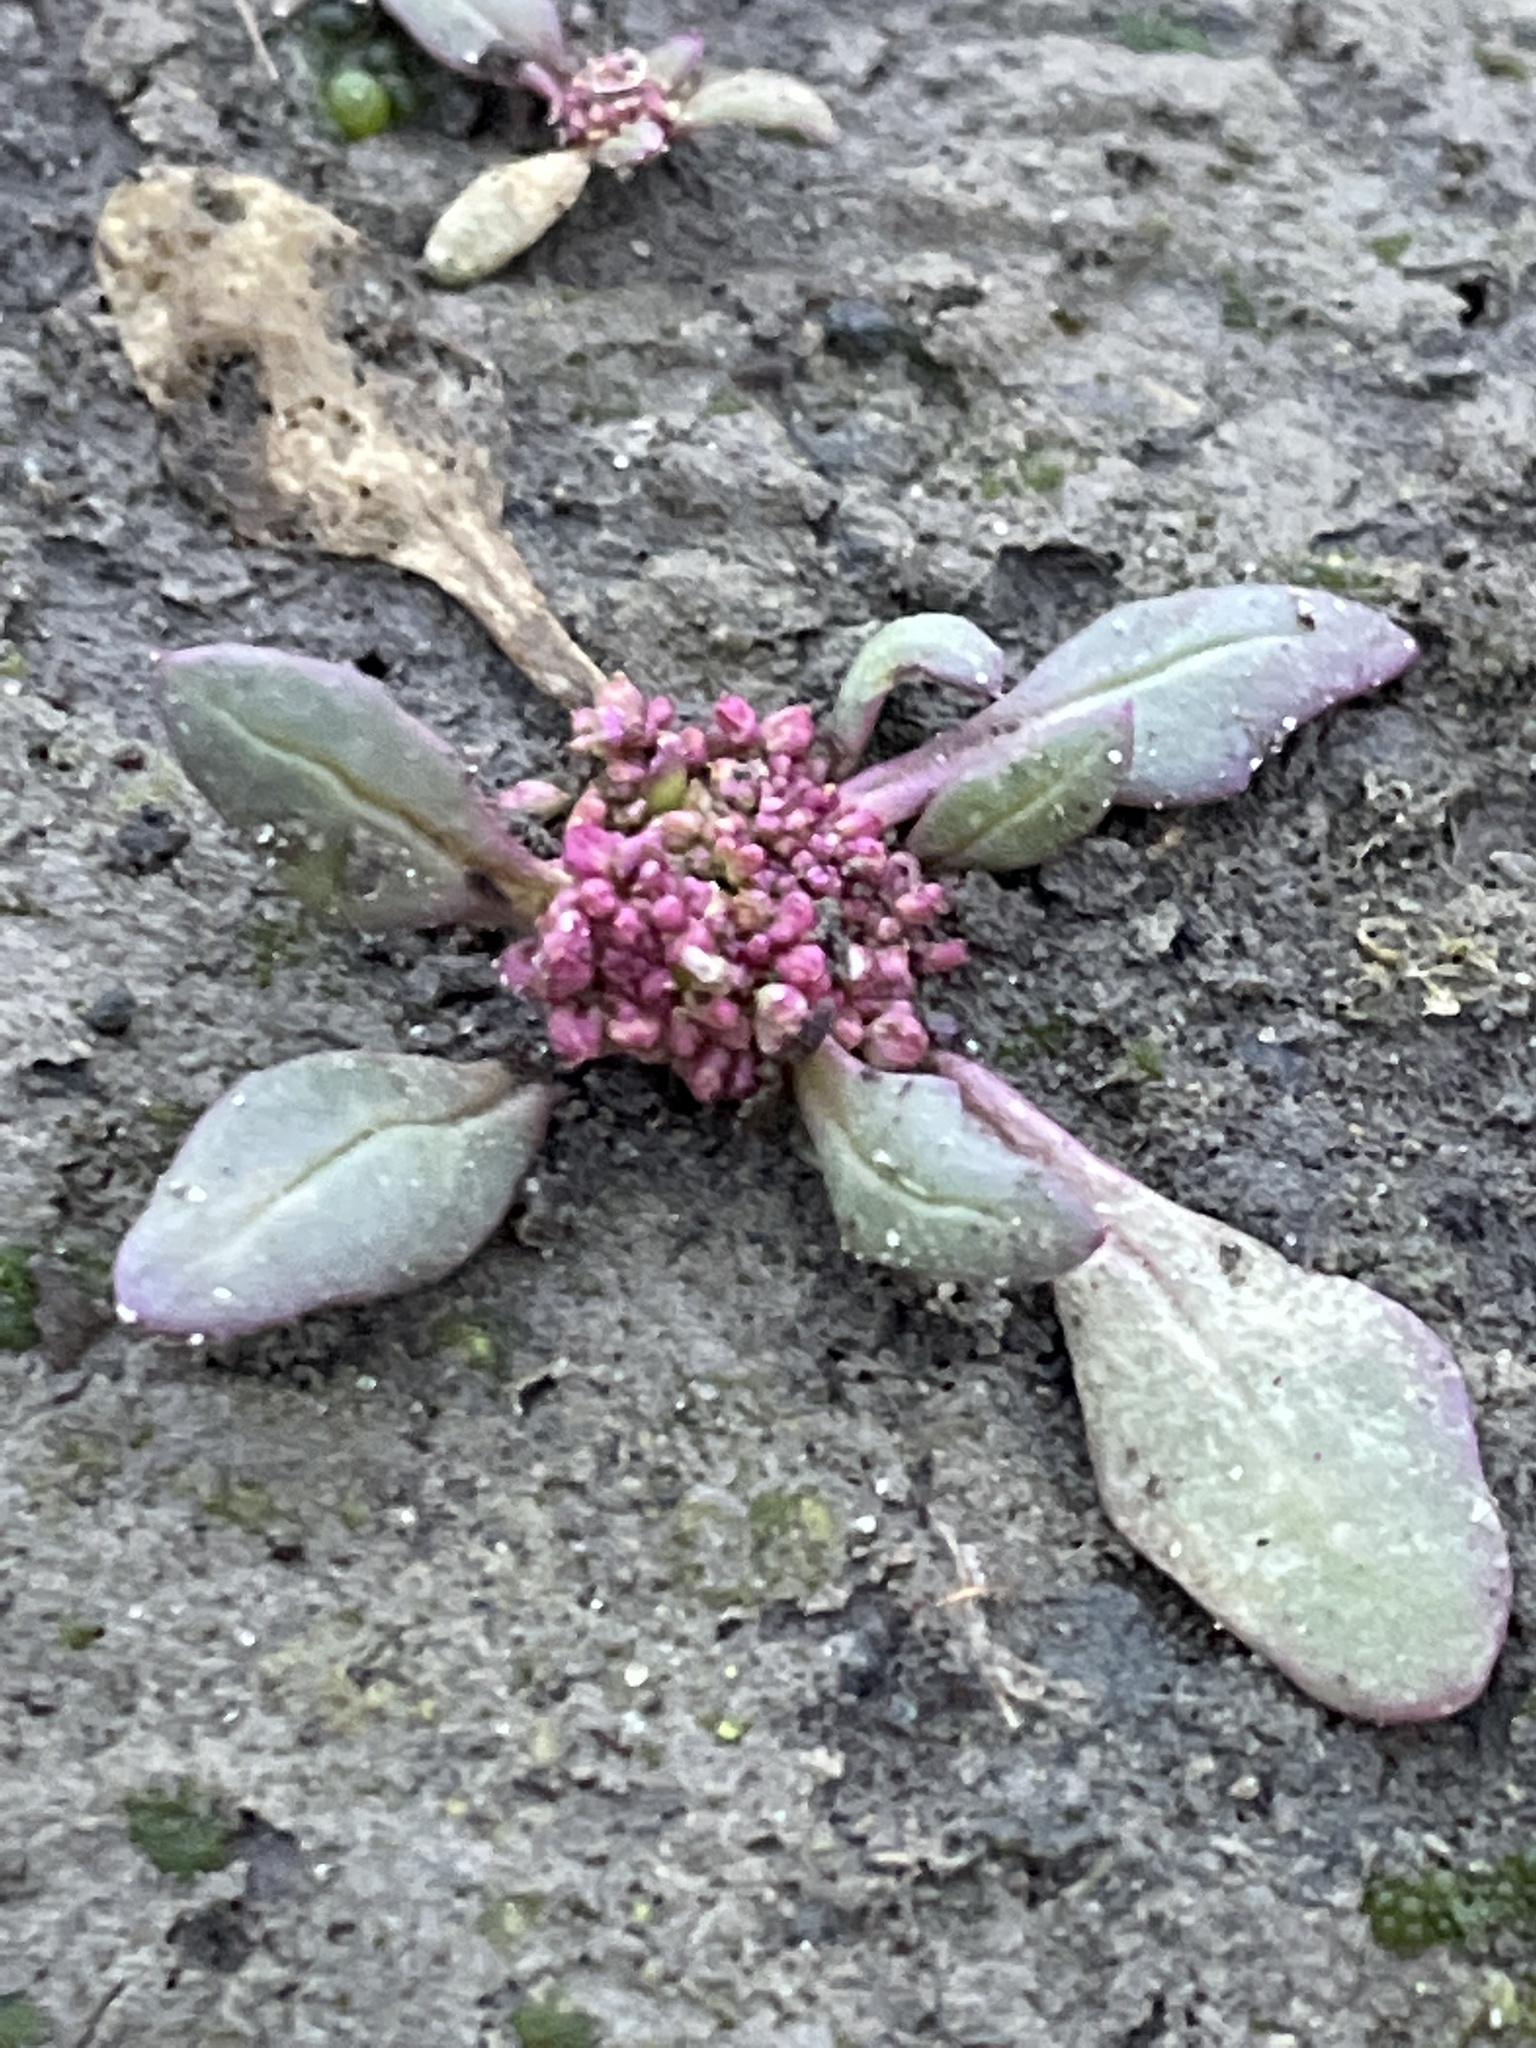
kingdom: Plantae
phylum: Tracheophyta
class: Magnoliopsida
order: Caryophyllales
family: Amaranthaceae
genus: Oxybasis
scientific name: Oxybasis rubra
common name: Red goosefoot
